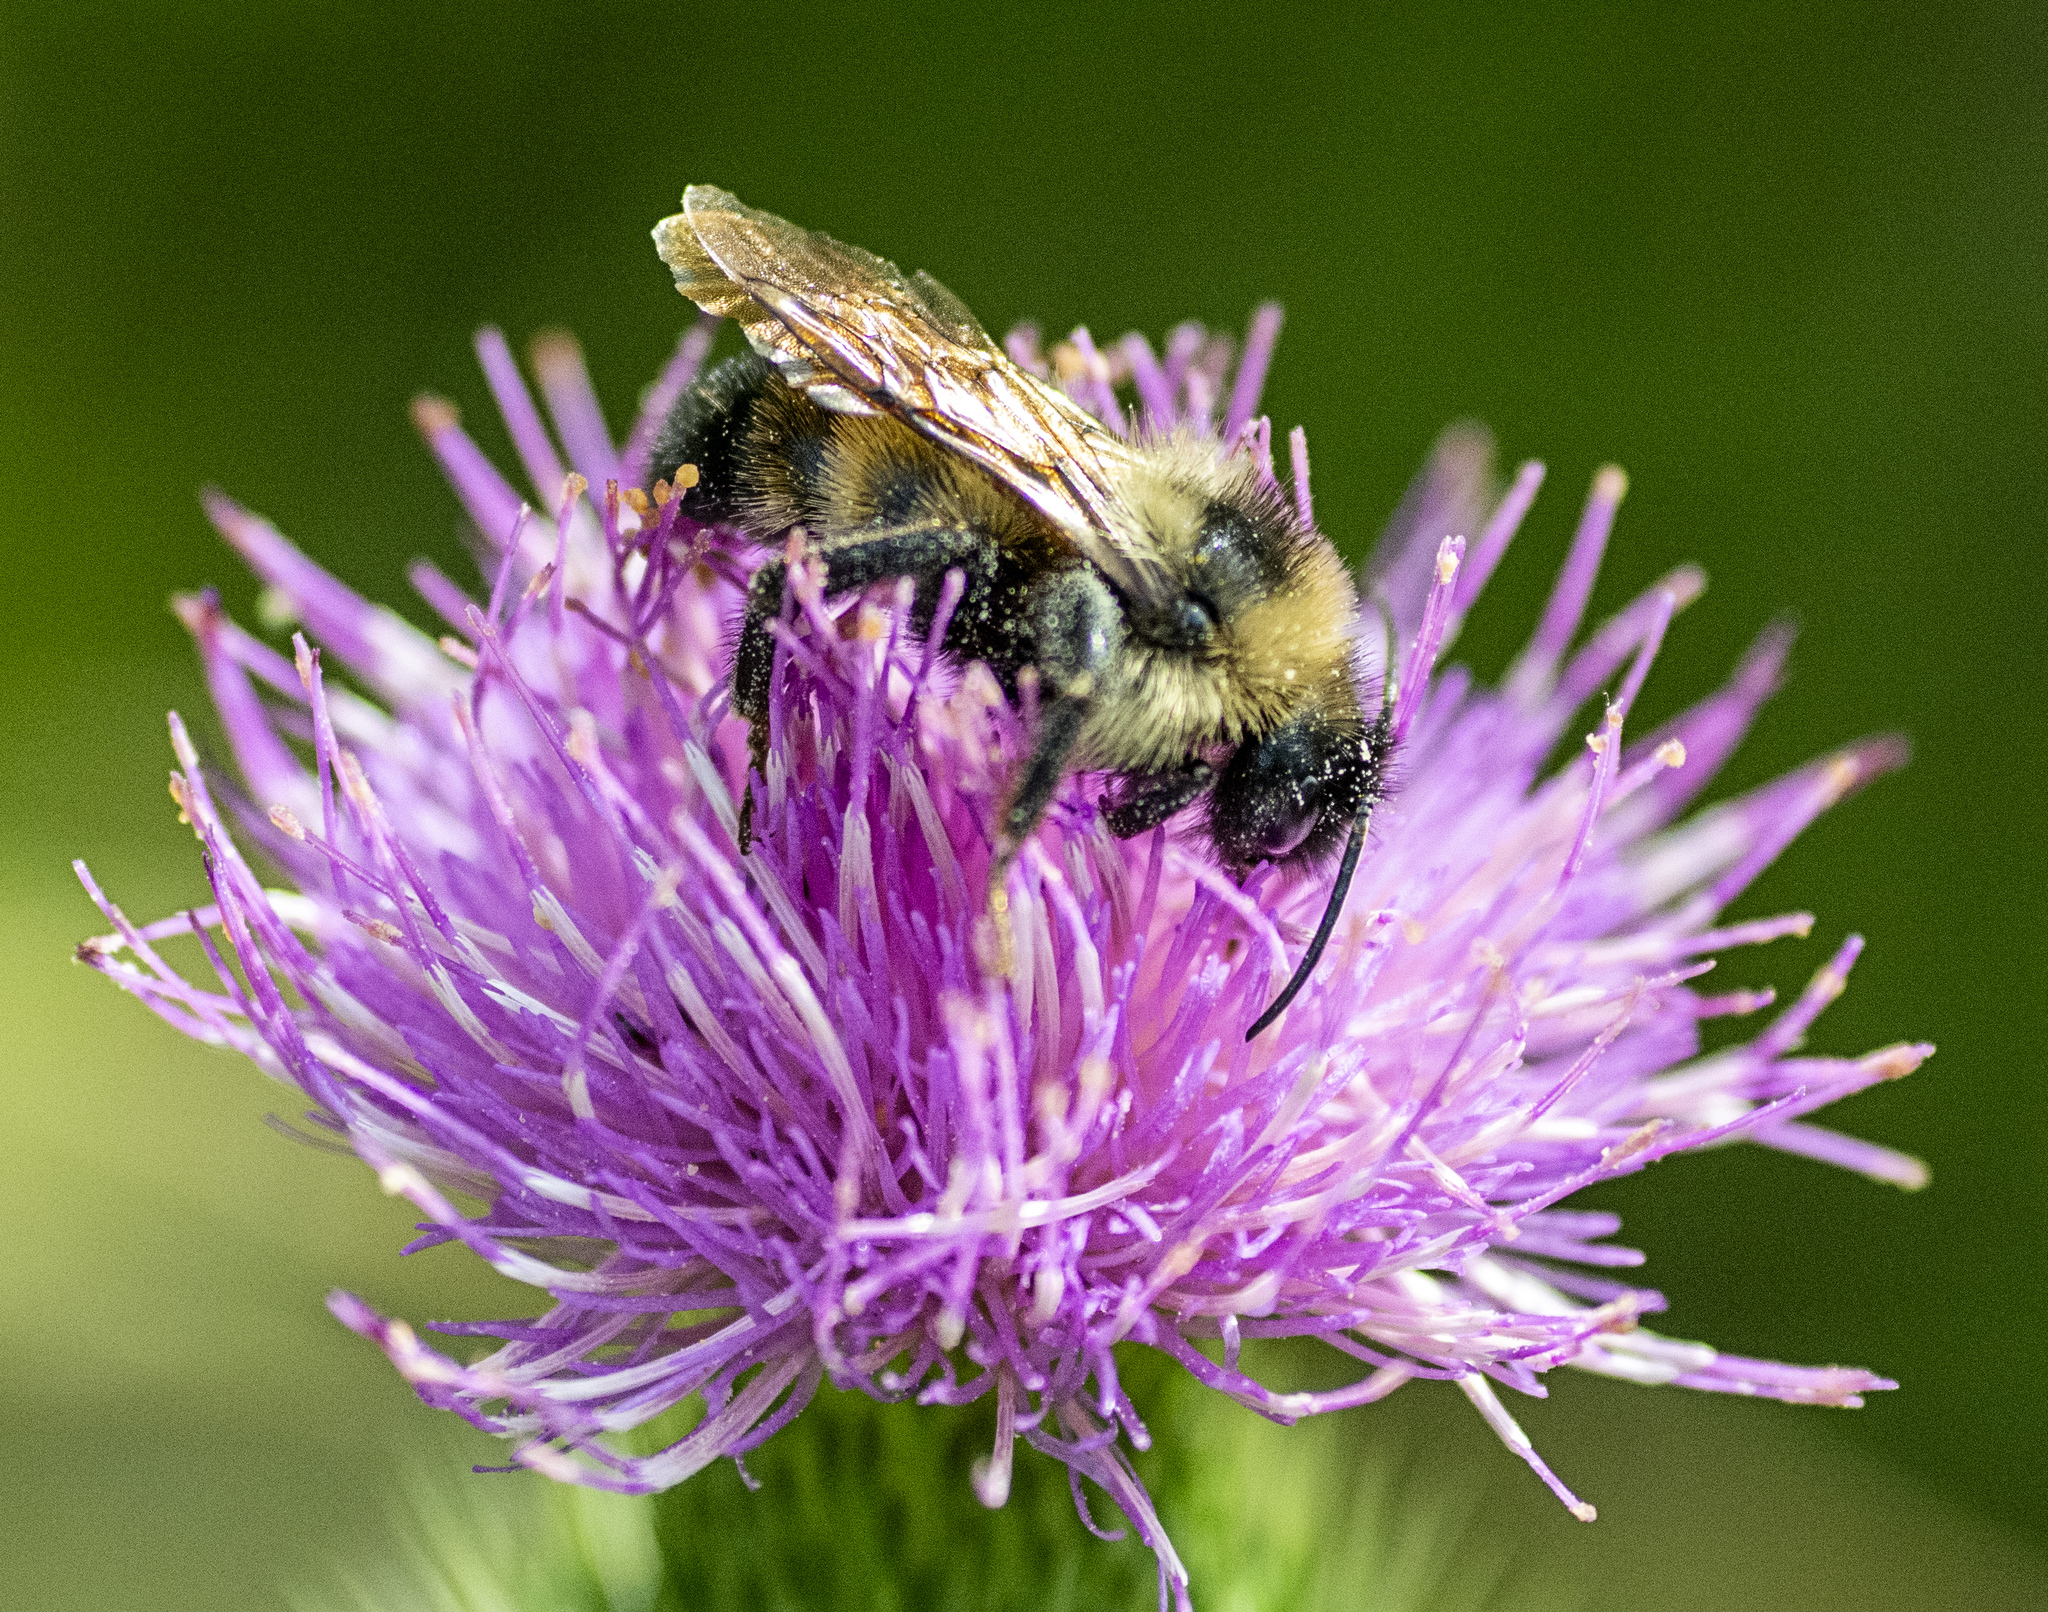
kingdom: Animalia
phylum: Arthropoda
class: Insecta
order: Hymenoptera
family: Apidae
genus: Bombus
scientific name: Bombus citrinus
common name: Lemon cuckoo bumble bee
